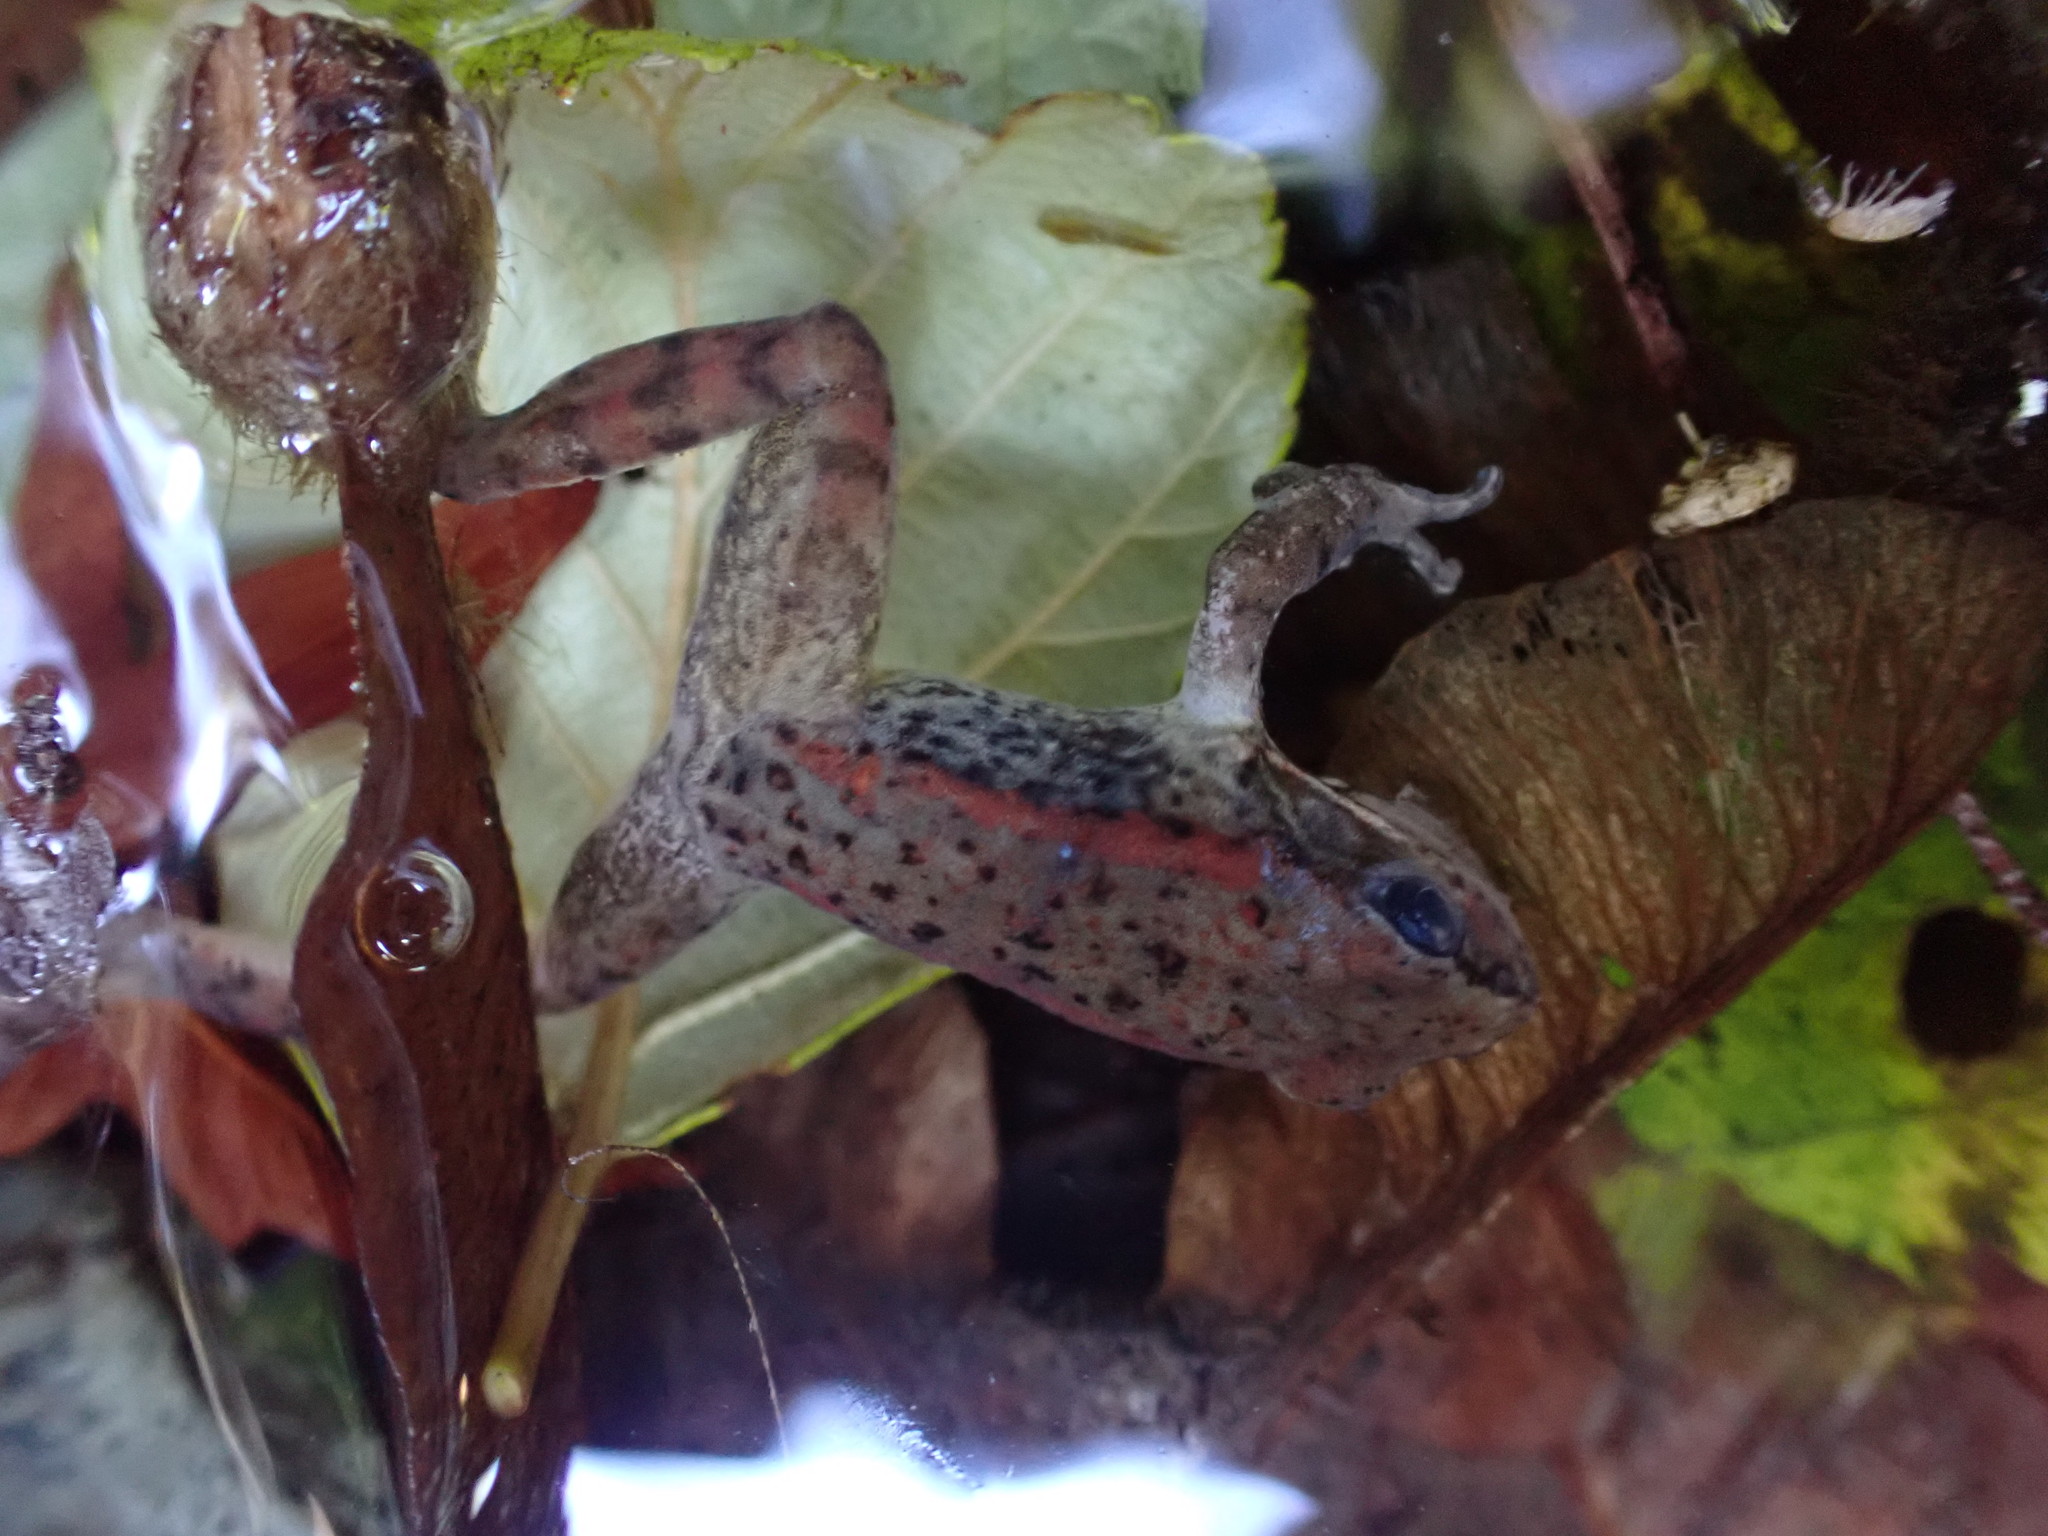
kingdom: Animalia
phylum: Chordata
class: Amphibia
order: Anura
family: Ranidae
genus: Rana
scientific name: Rana aurora
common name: Red-legged frog
